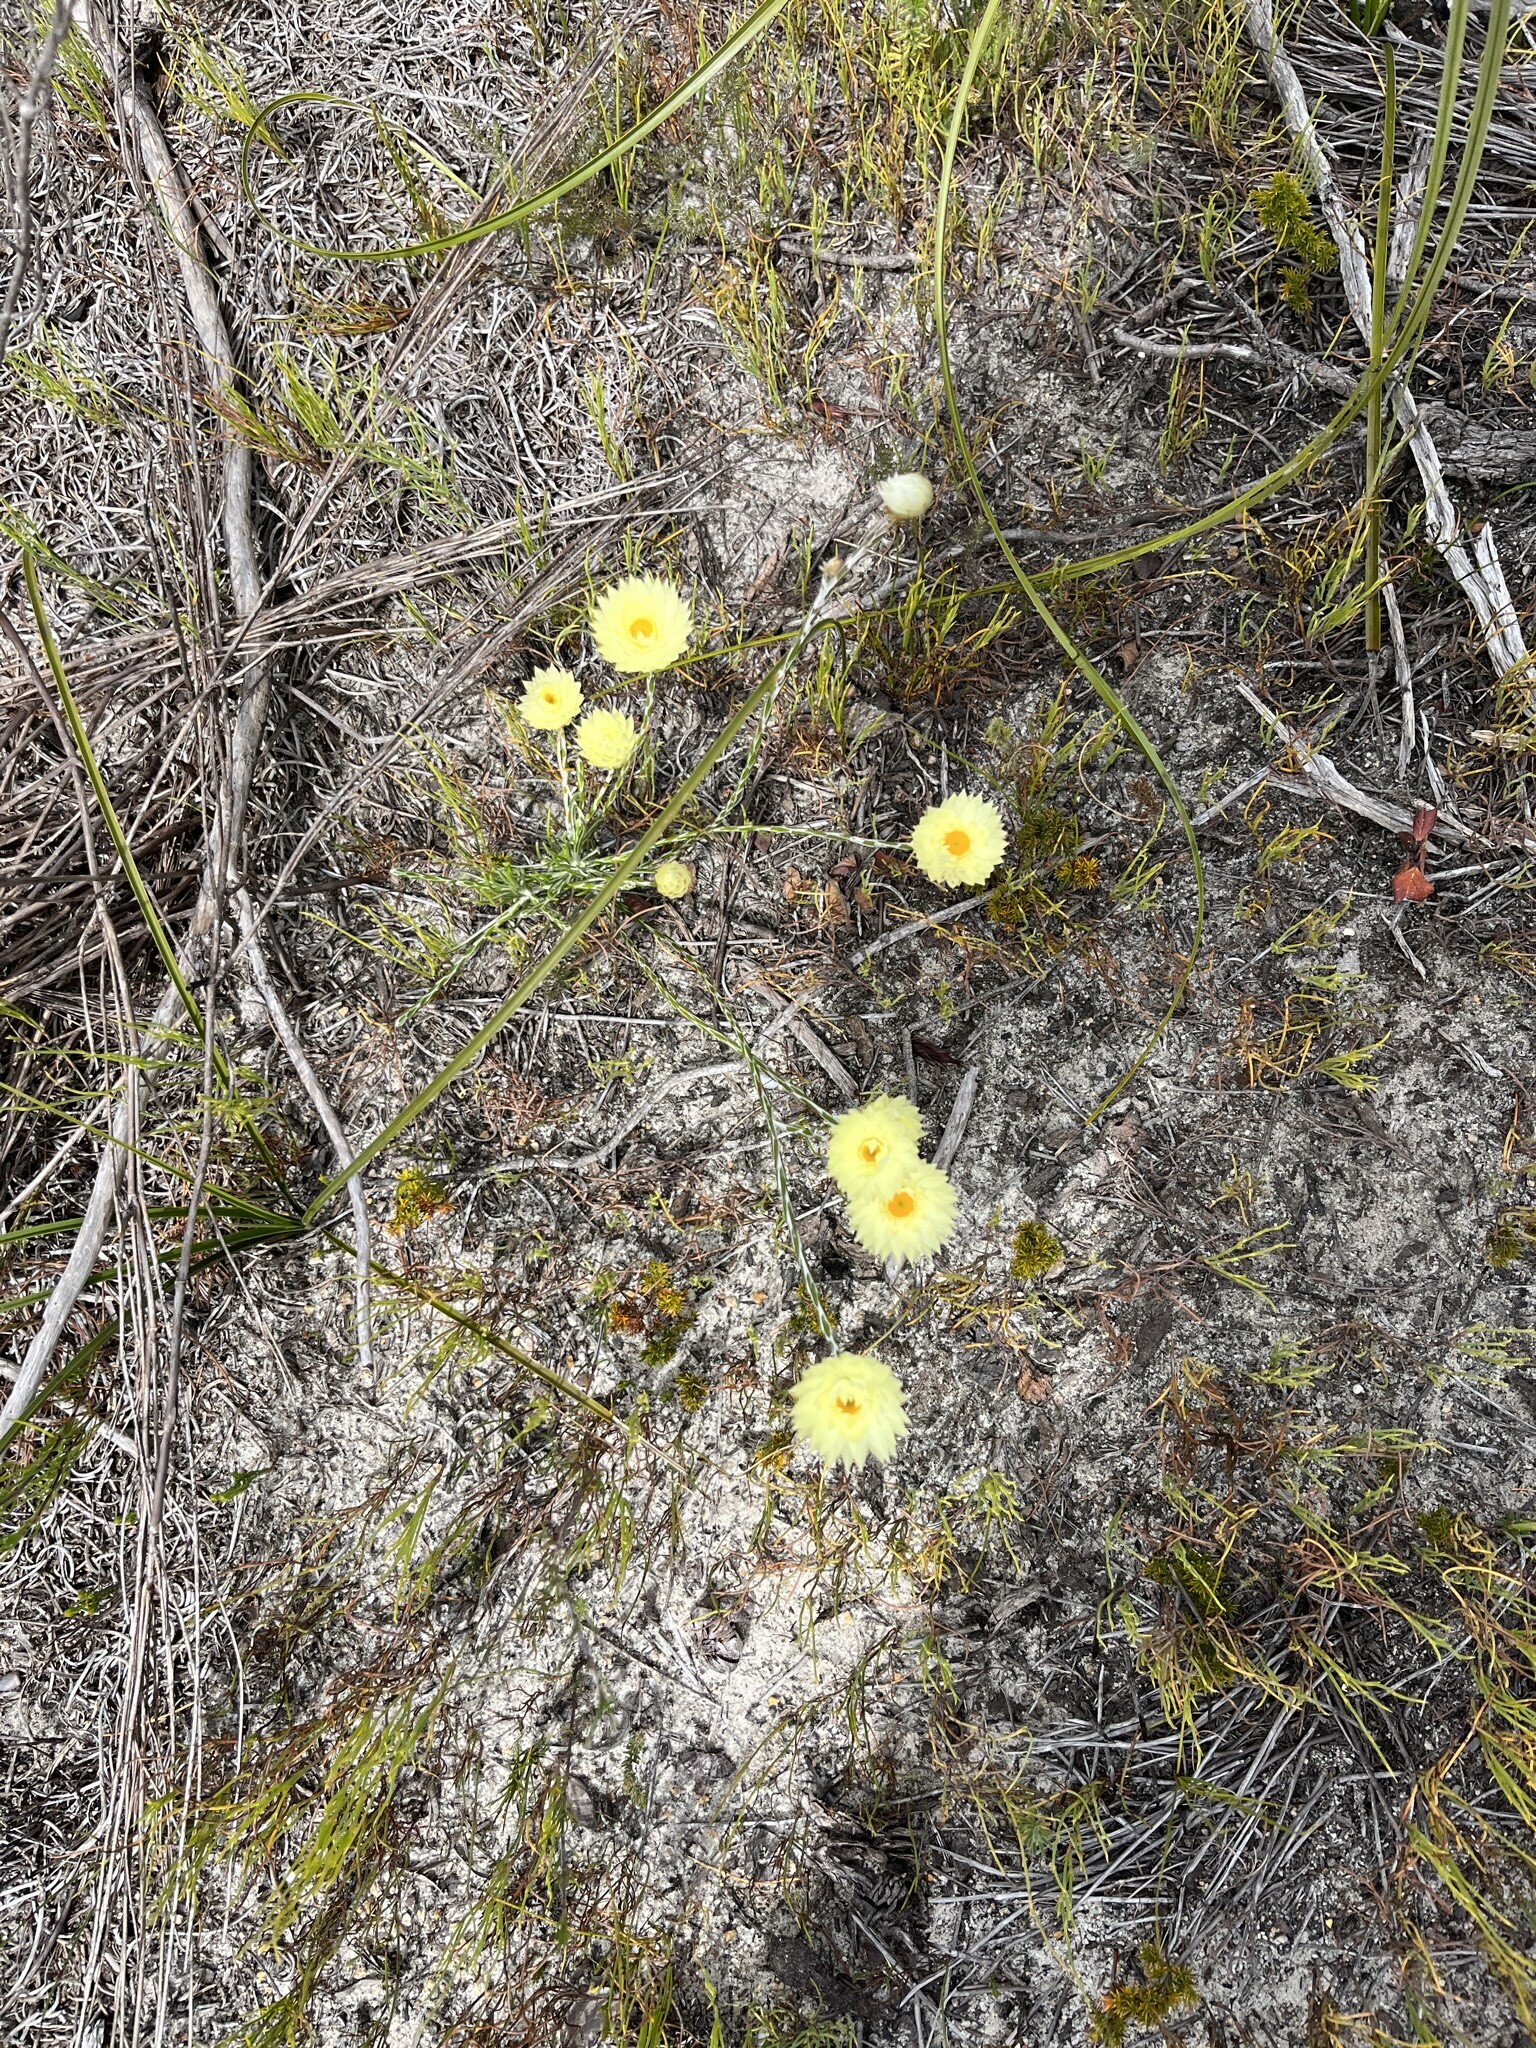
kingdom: Plantae
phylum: Tracheophyta
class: Magnoliopsida
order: Asterales
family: Asteraceae
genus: Edmondia
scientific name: Edmondia sesamoides
